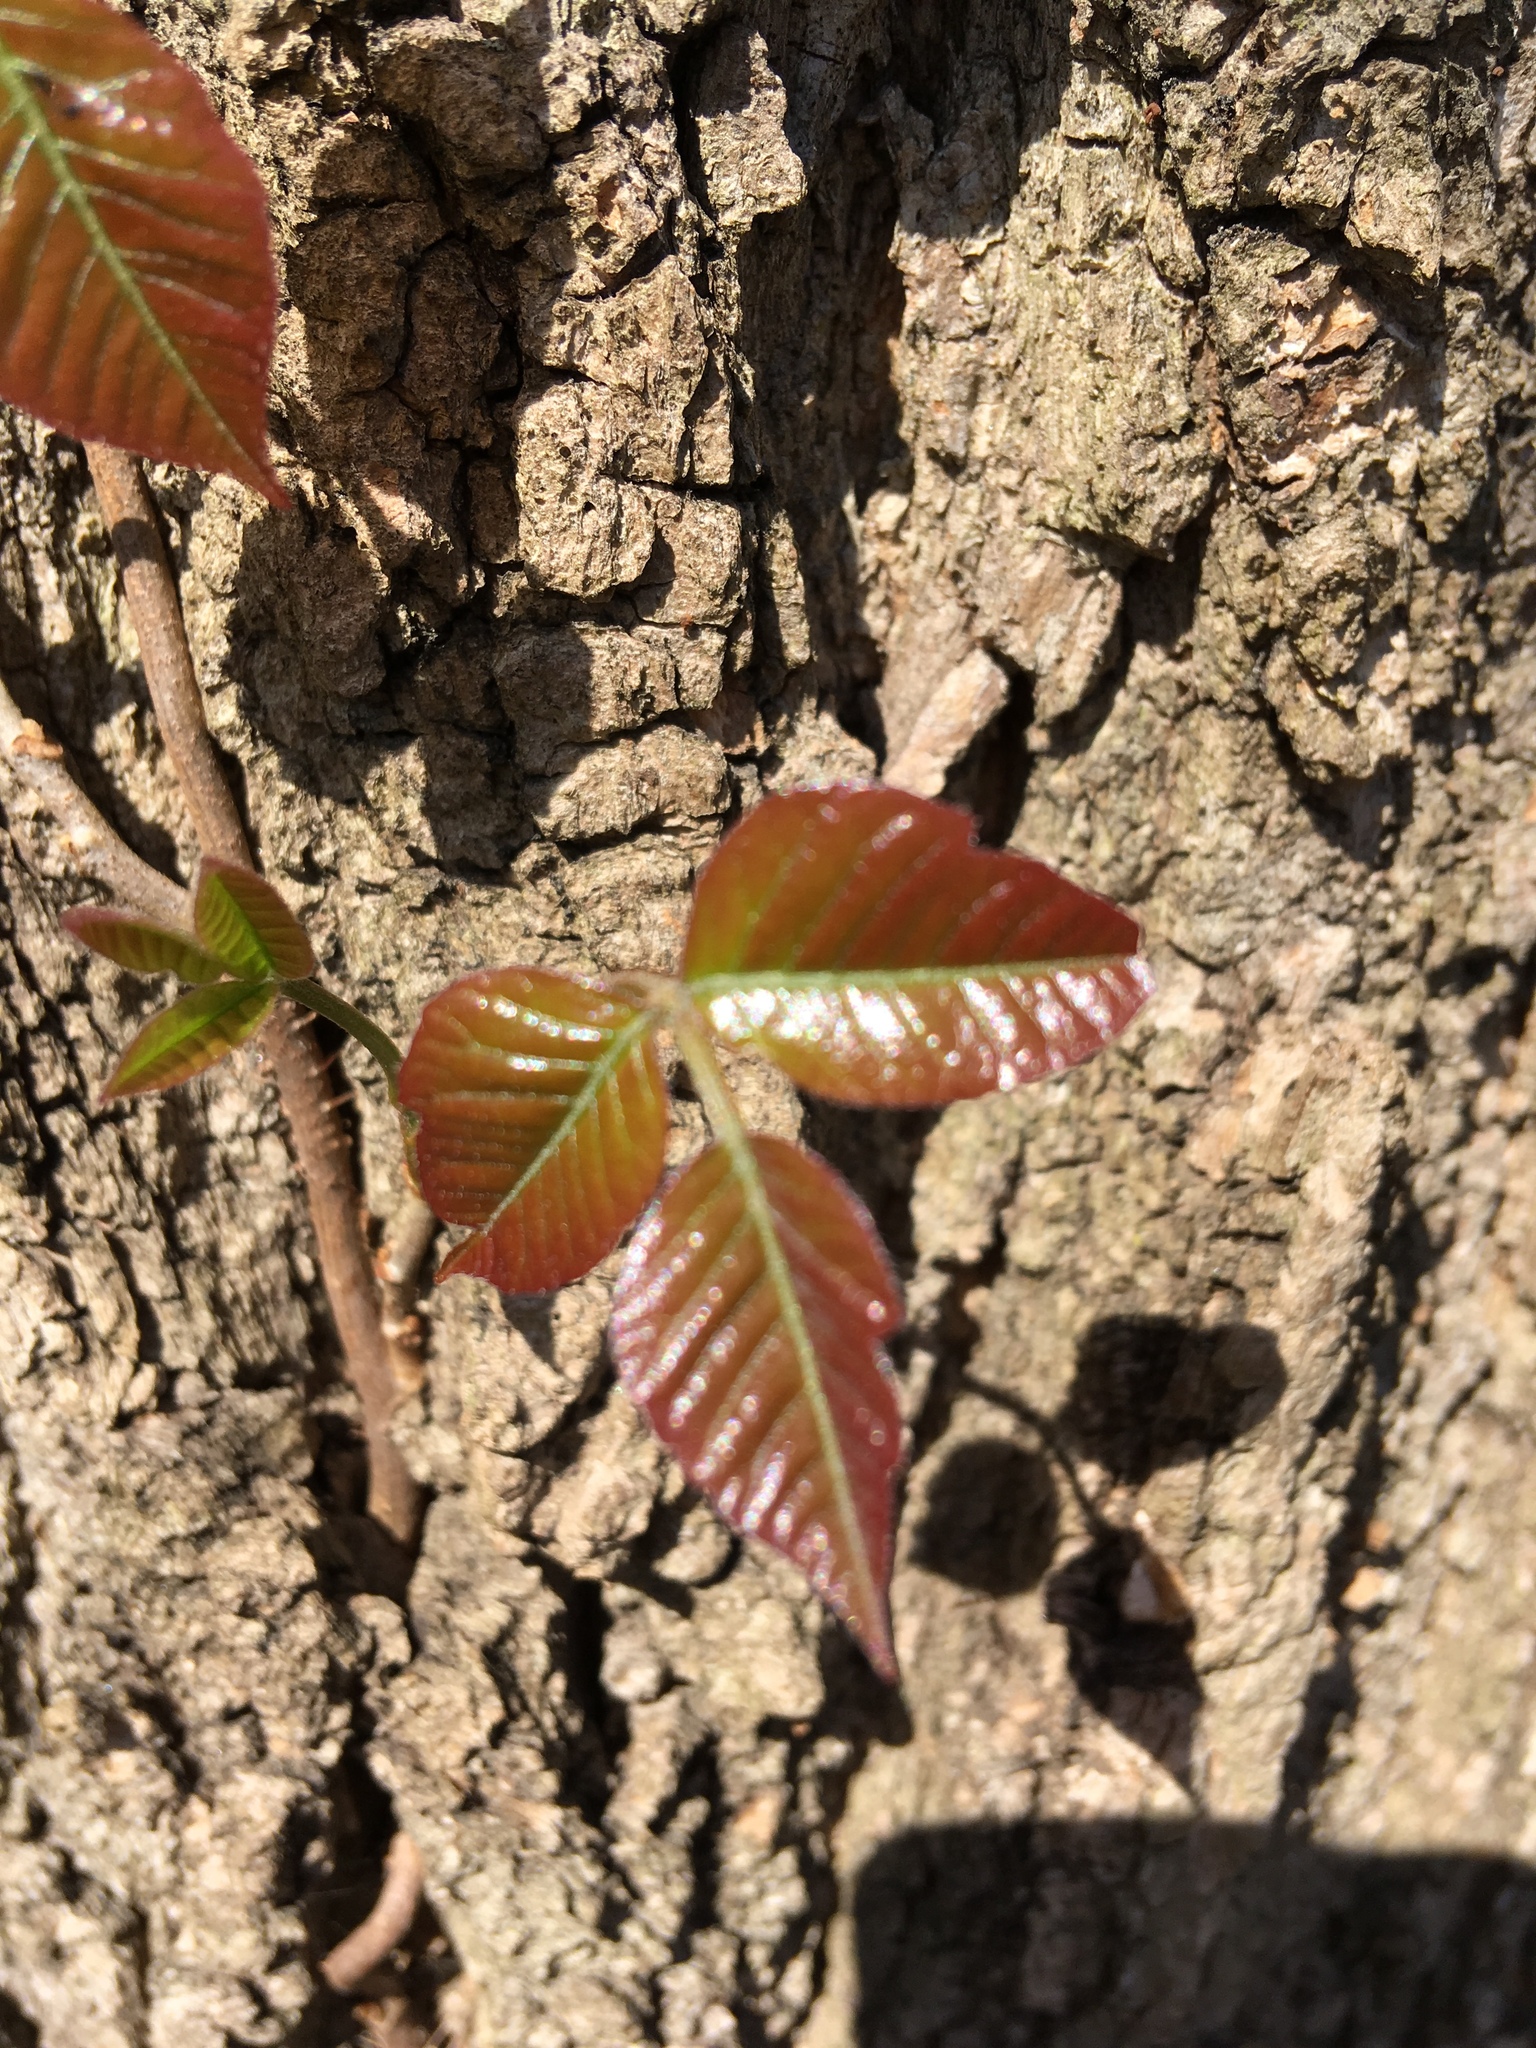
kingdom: Plantae
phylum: Tracheophyta
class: Magnoliopsida
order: Sapindales
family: Anacardiaceae
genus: Toxicodendron
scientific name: Toxicodendron radicans
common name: Poison ivy
